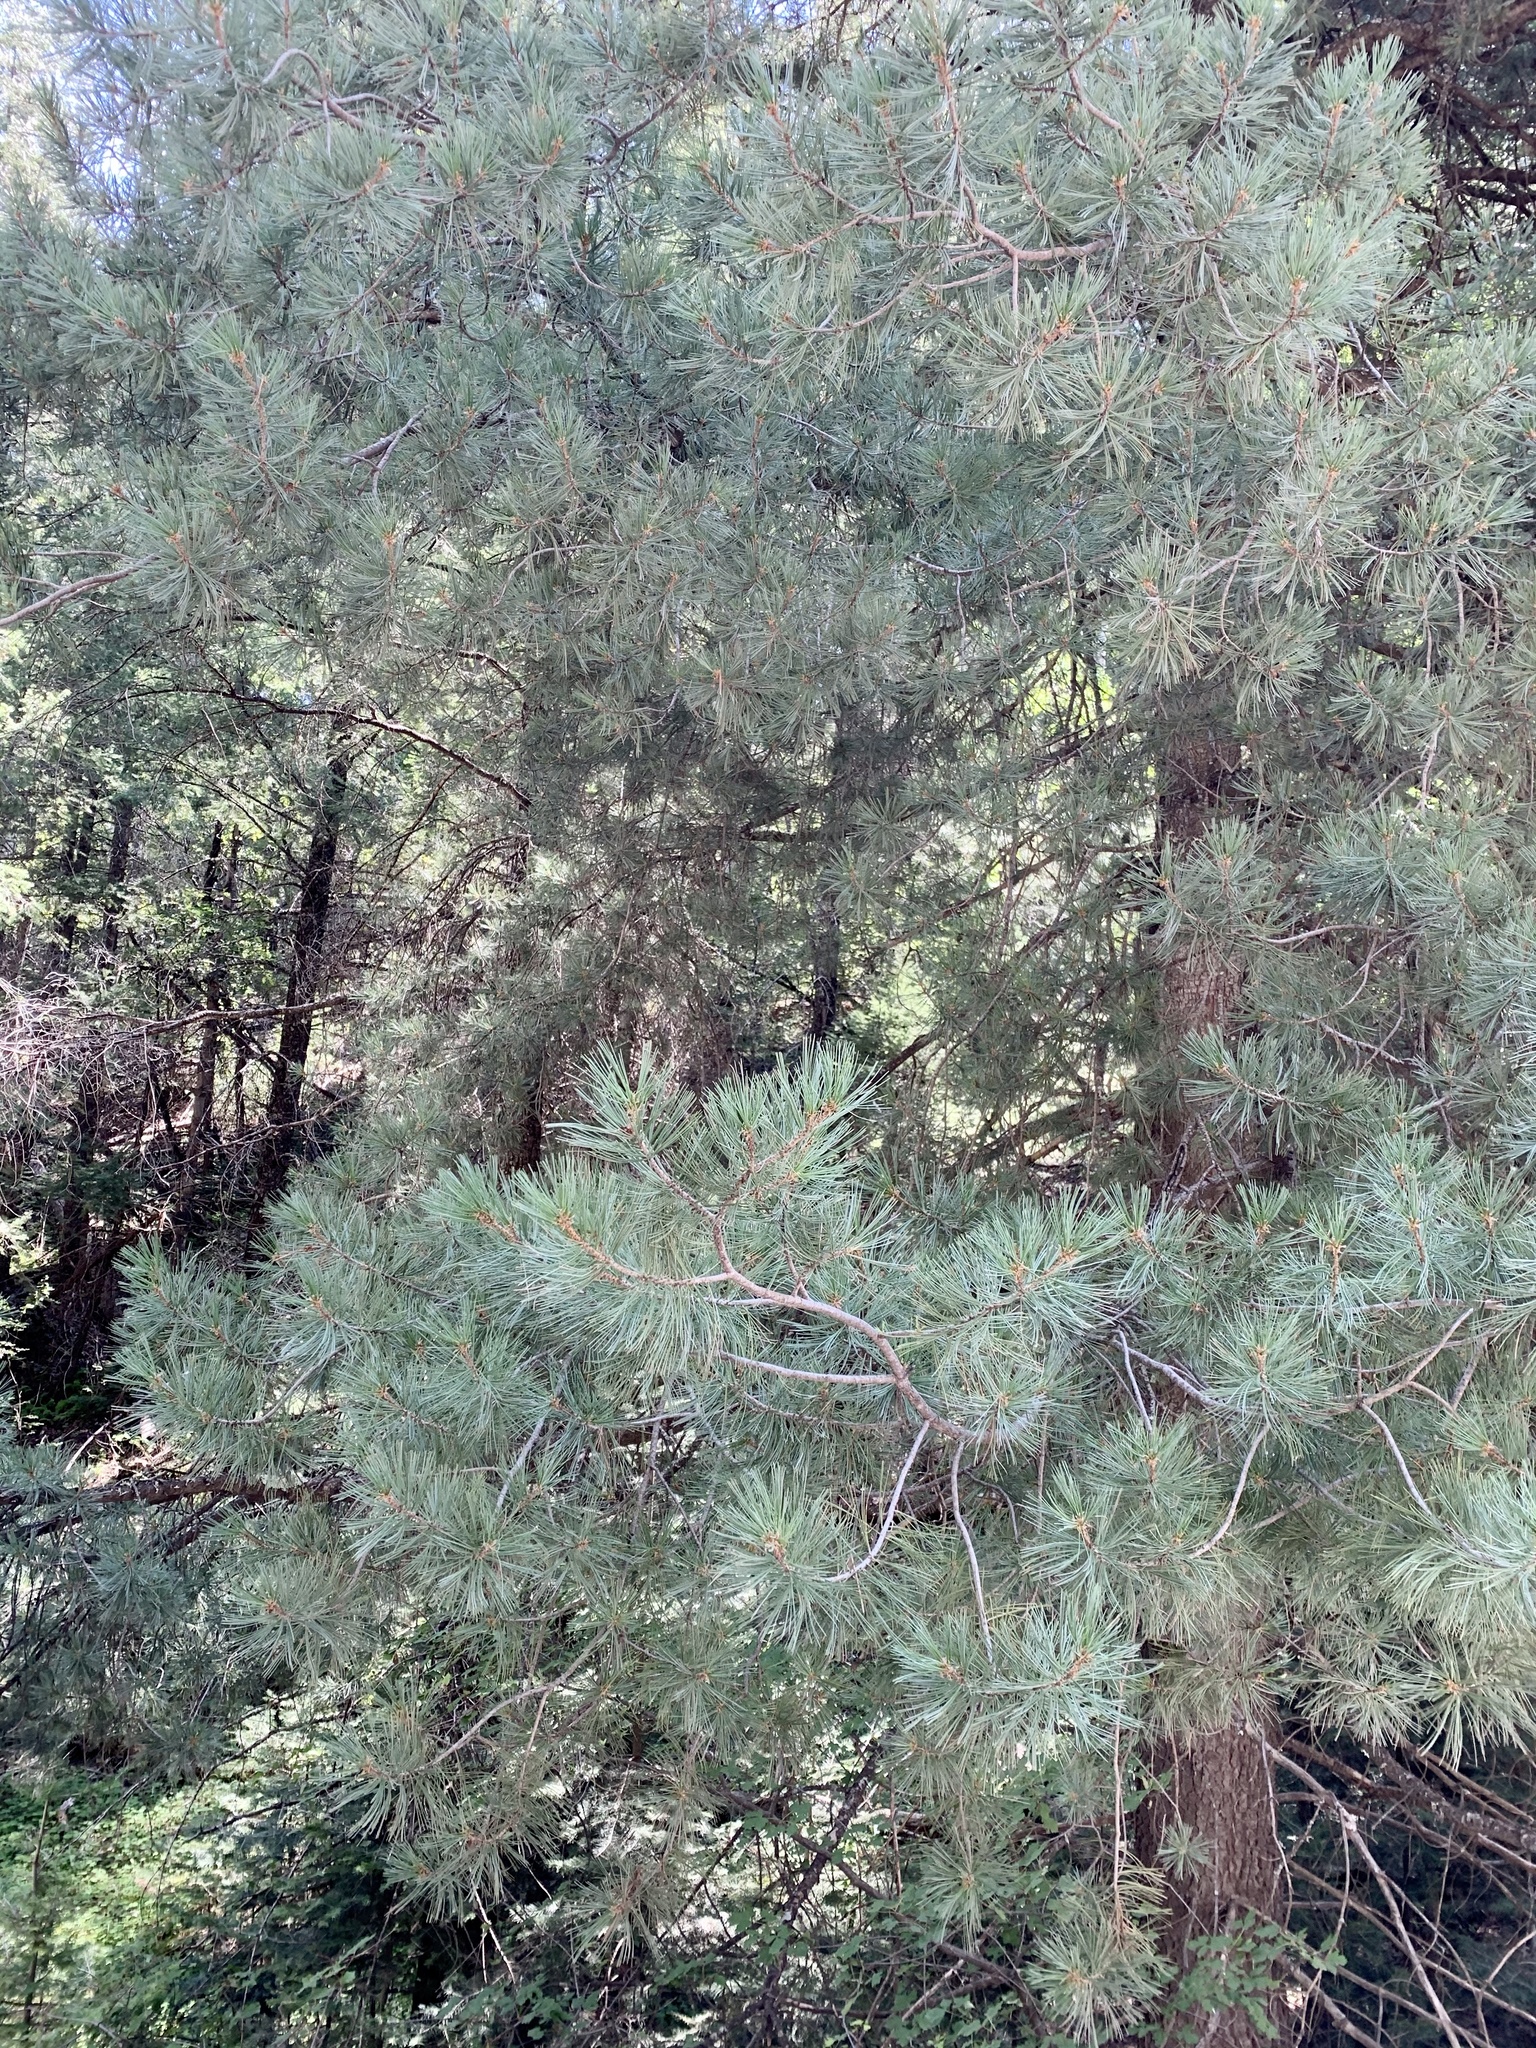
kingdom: Plantae
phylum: Tracheophyta
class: Pinopsida
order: Pinales
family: Pinaceae
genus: Pinus
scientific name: Pinus strobiformis
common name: Southwestern white pine
